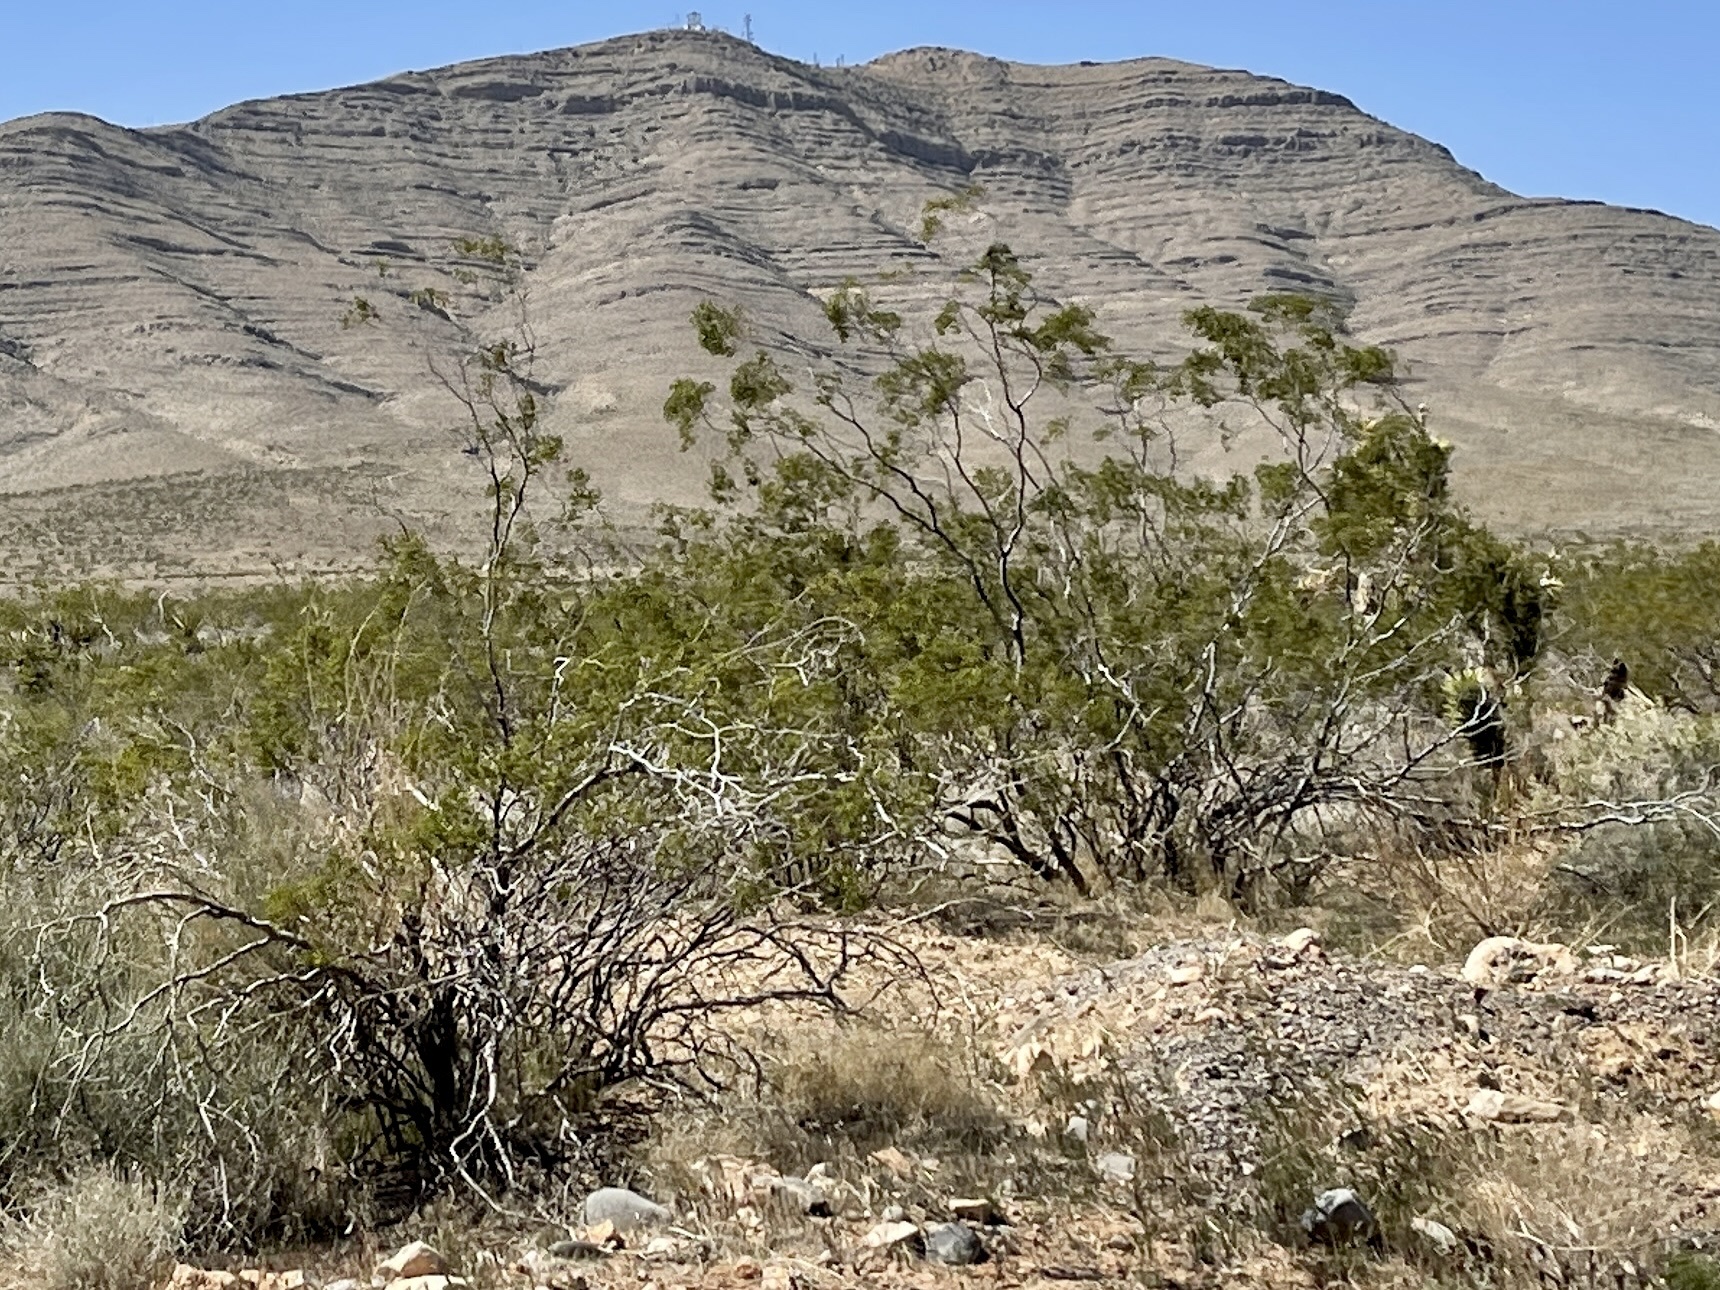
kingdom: Plantae
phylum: Tracheophyta
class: Magnoliopsida
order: Zygophyllales
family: Zygophyllaceae
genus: Larrea
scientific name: Larrea tridentata
